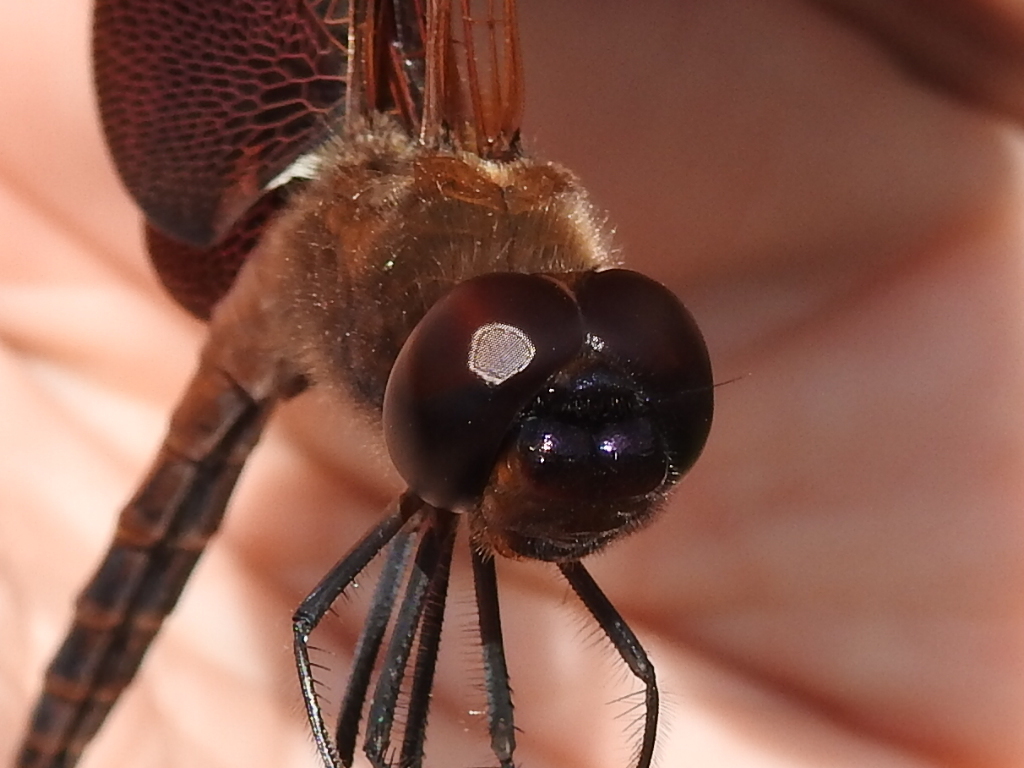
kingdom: Animalia
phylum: Arthropoda
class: Insecta
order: Odonata
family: Libellulidae
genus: Tramea
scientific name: Tramea carolina
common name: Carolina saddlebags
